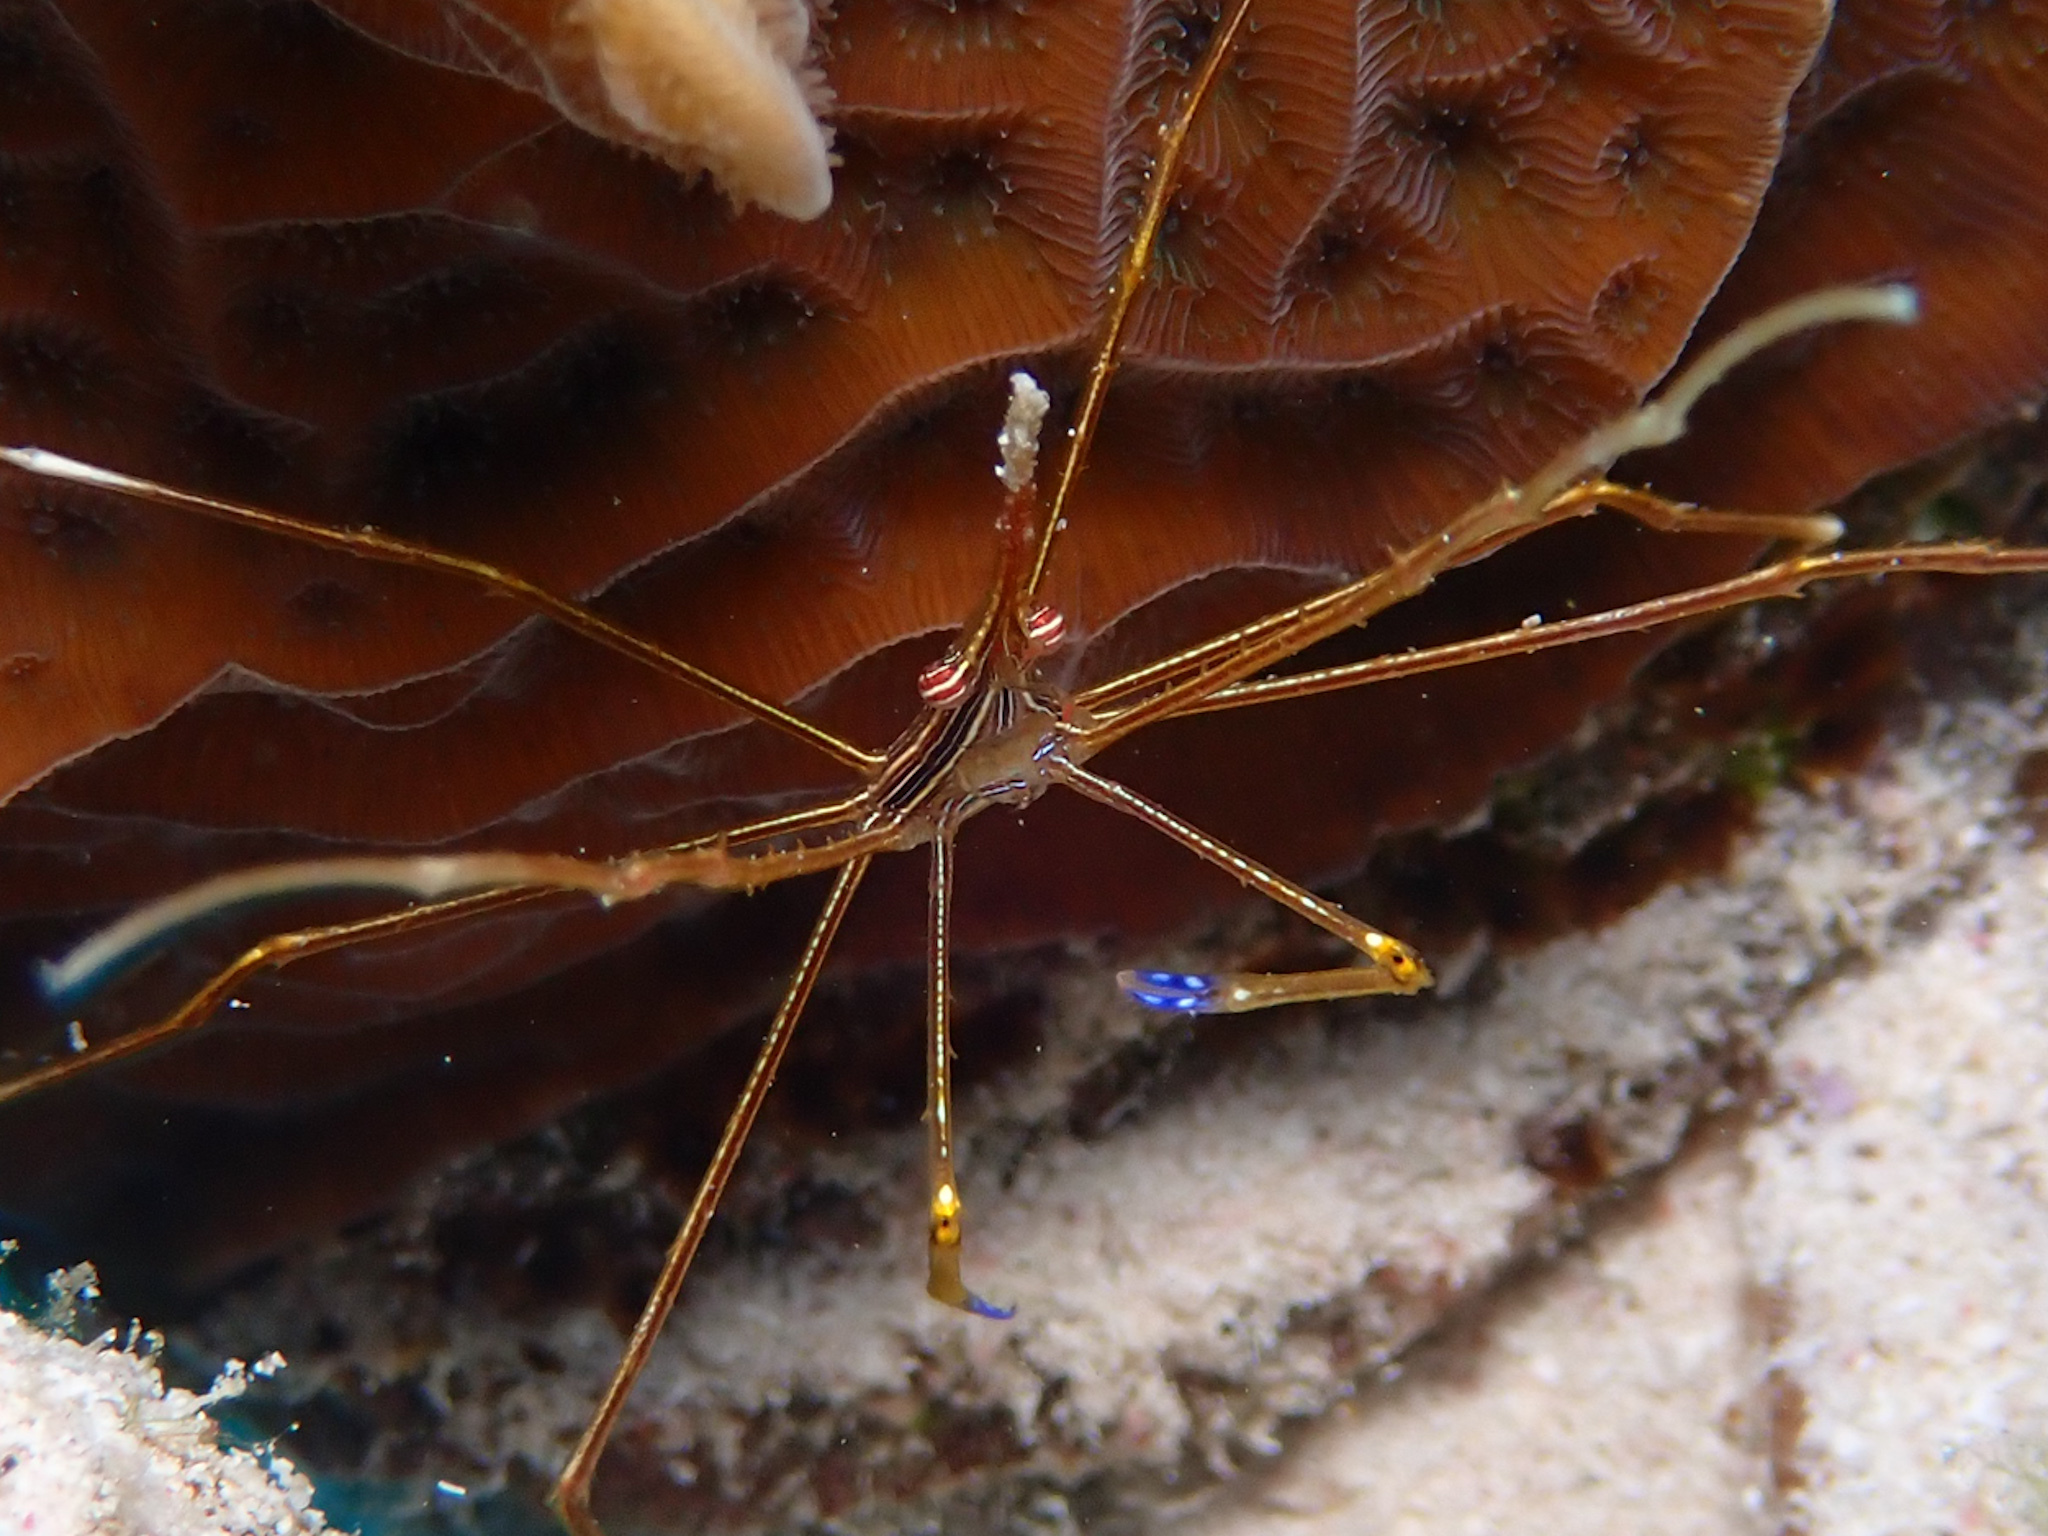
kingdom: Animalia
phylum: Arthropoda
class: Malacostraca
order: Decapoda
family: Inachoididae
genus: Stenorhynchus
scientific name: Stenorhynchus seticornis
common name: Arrow crab
